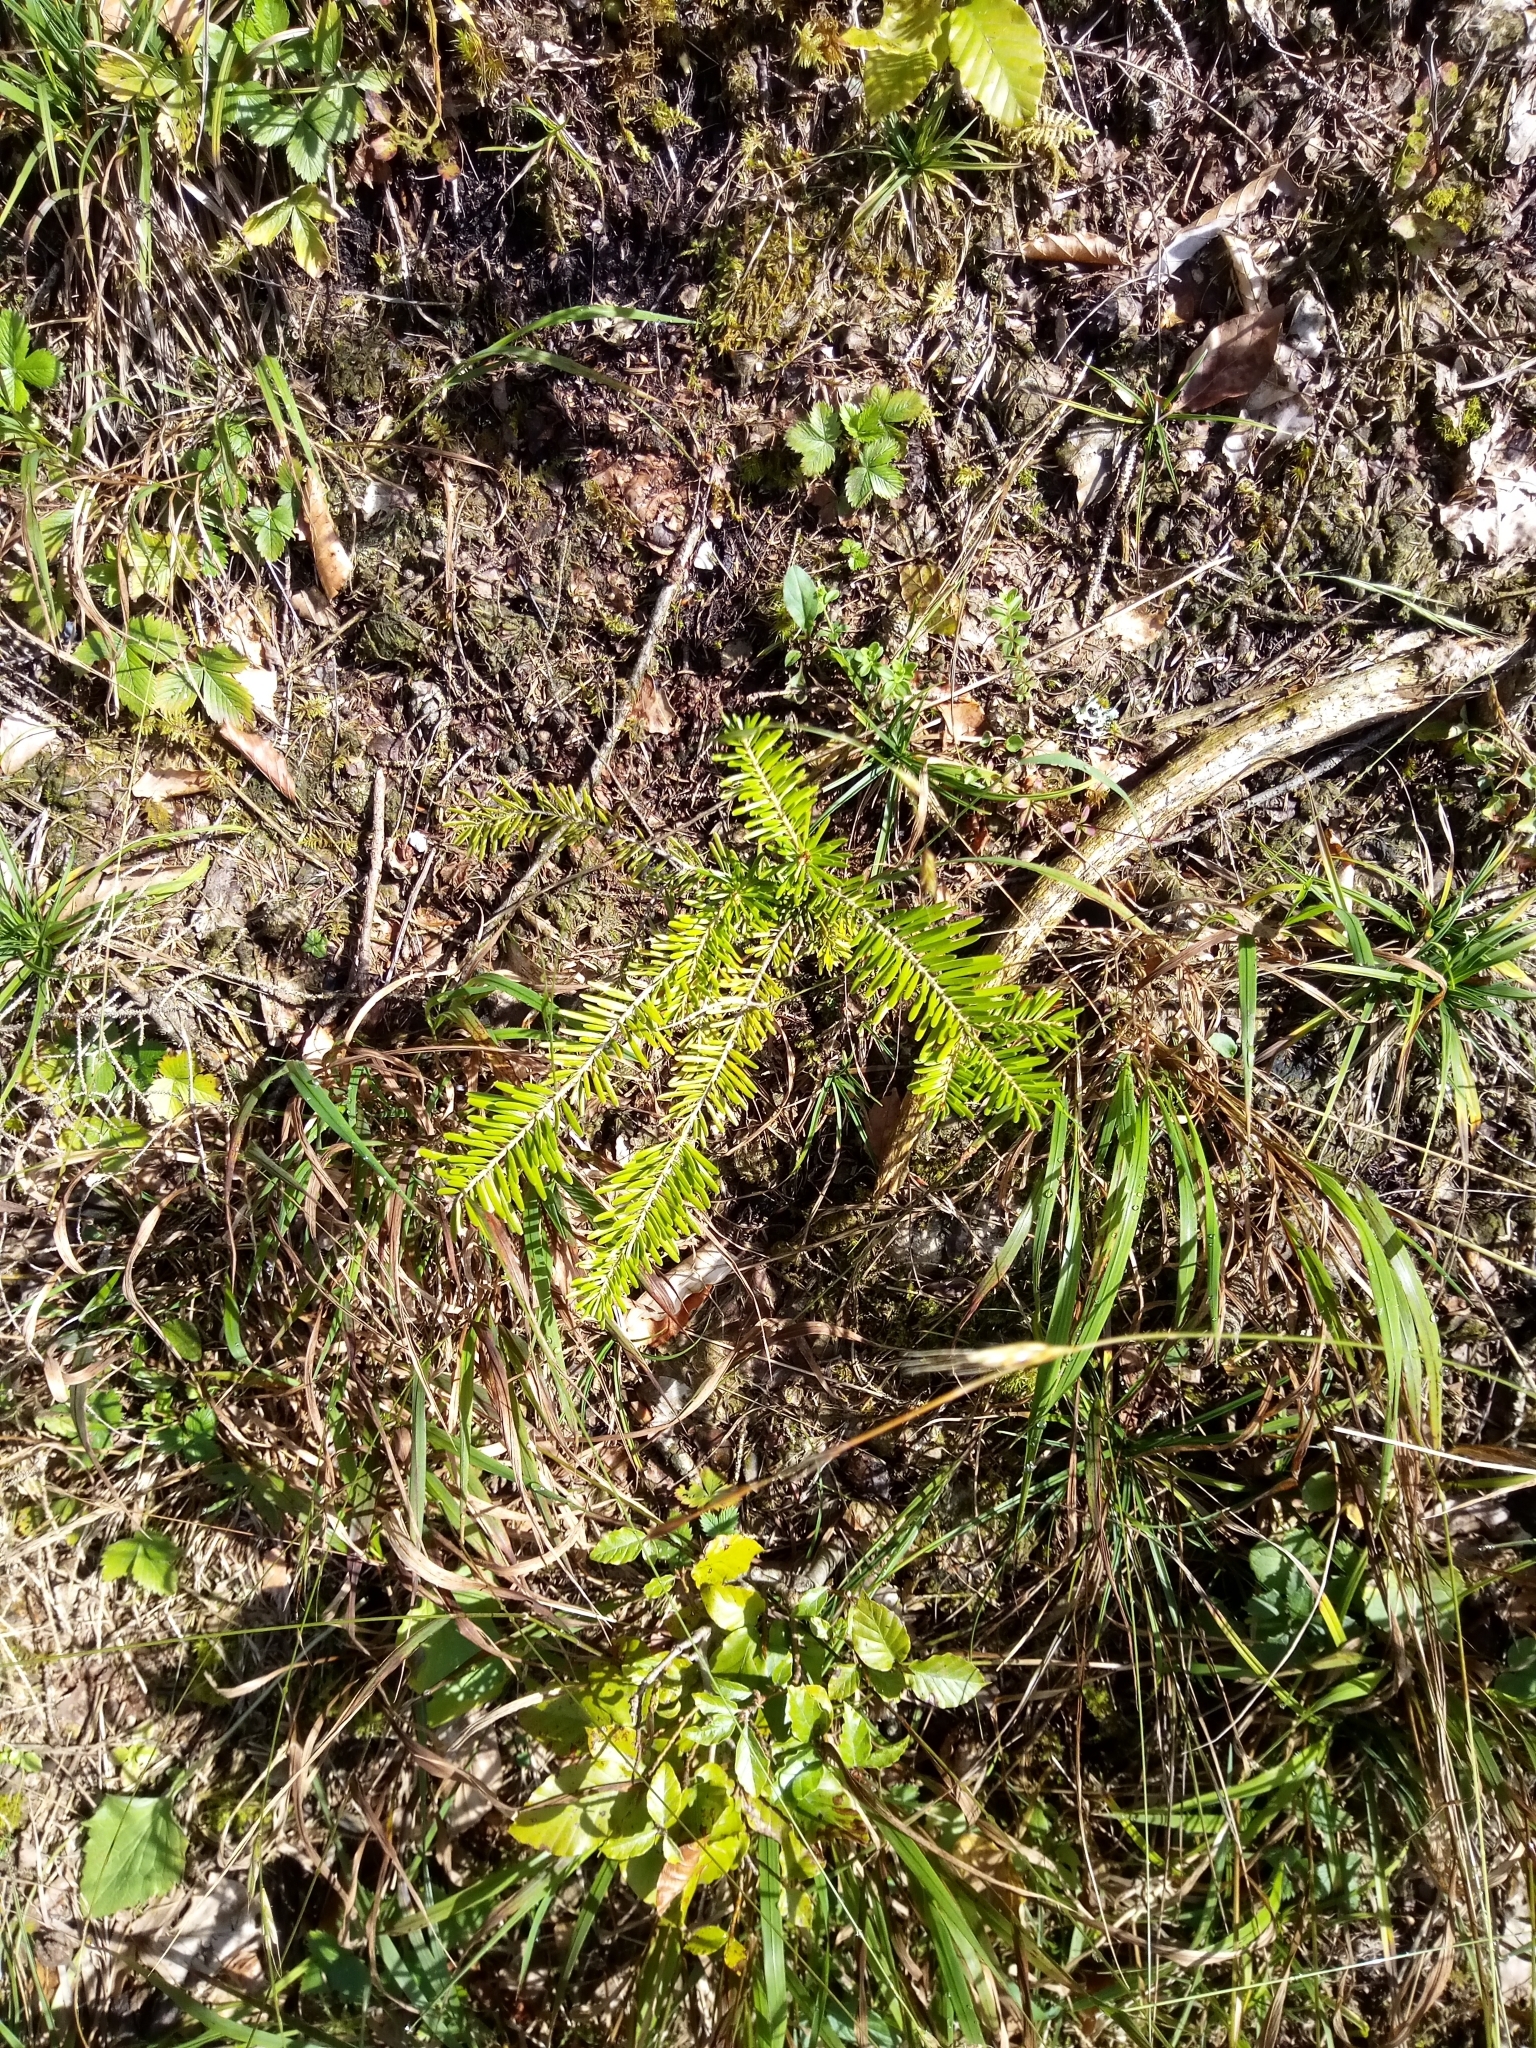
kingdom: Plantae
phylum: Tracheophyta
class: Pinopsida
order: Pinales
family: Pinaceae
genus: Abies
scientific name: Abies alba
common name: Silver fir
